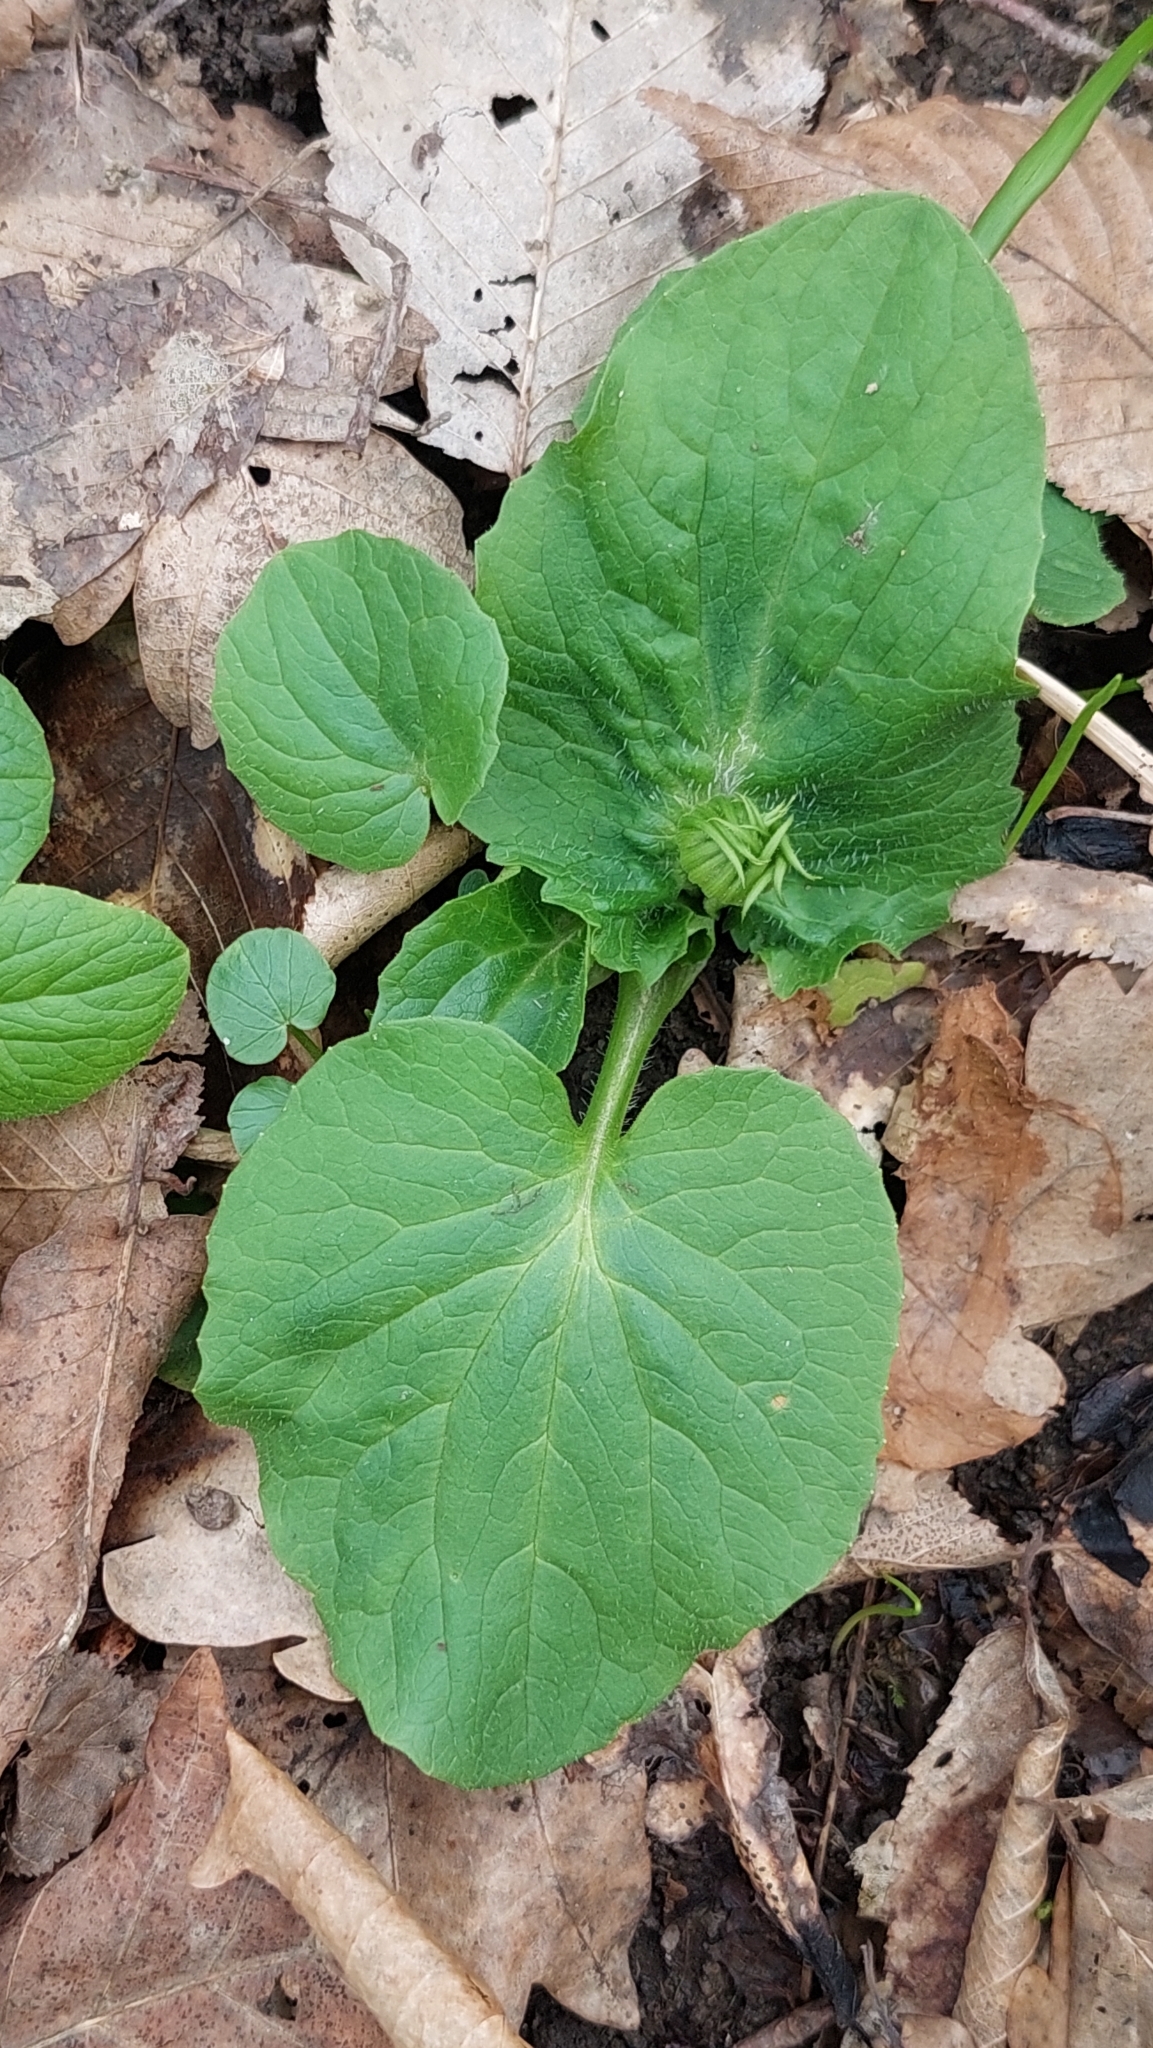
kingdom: Plantae
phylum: Tracheophyta
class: Magnoliopsida
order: Asterales
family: Asteraceae
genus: Doronicum
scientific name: Doronicum
